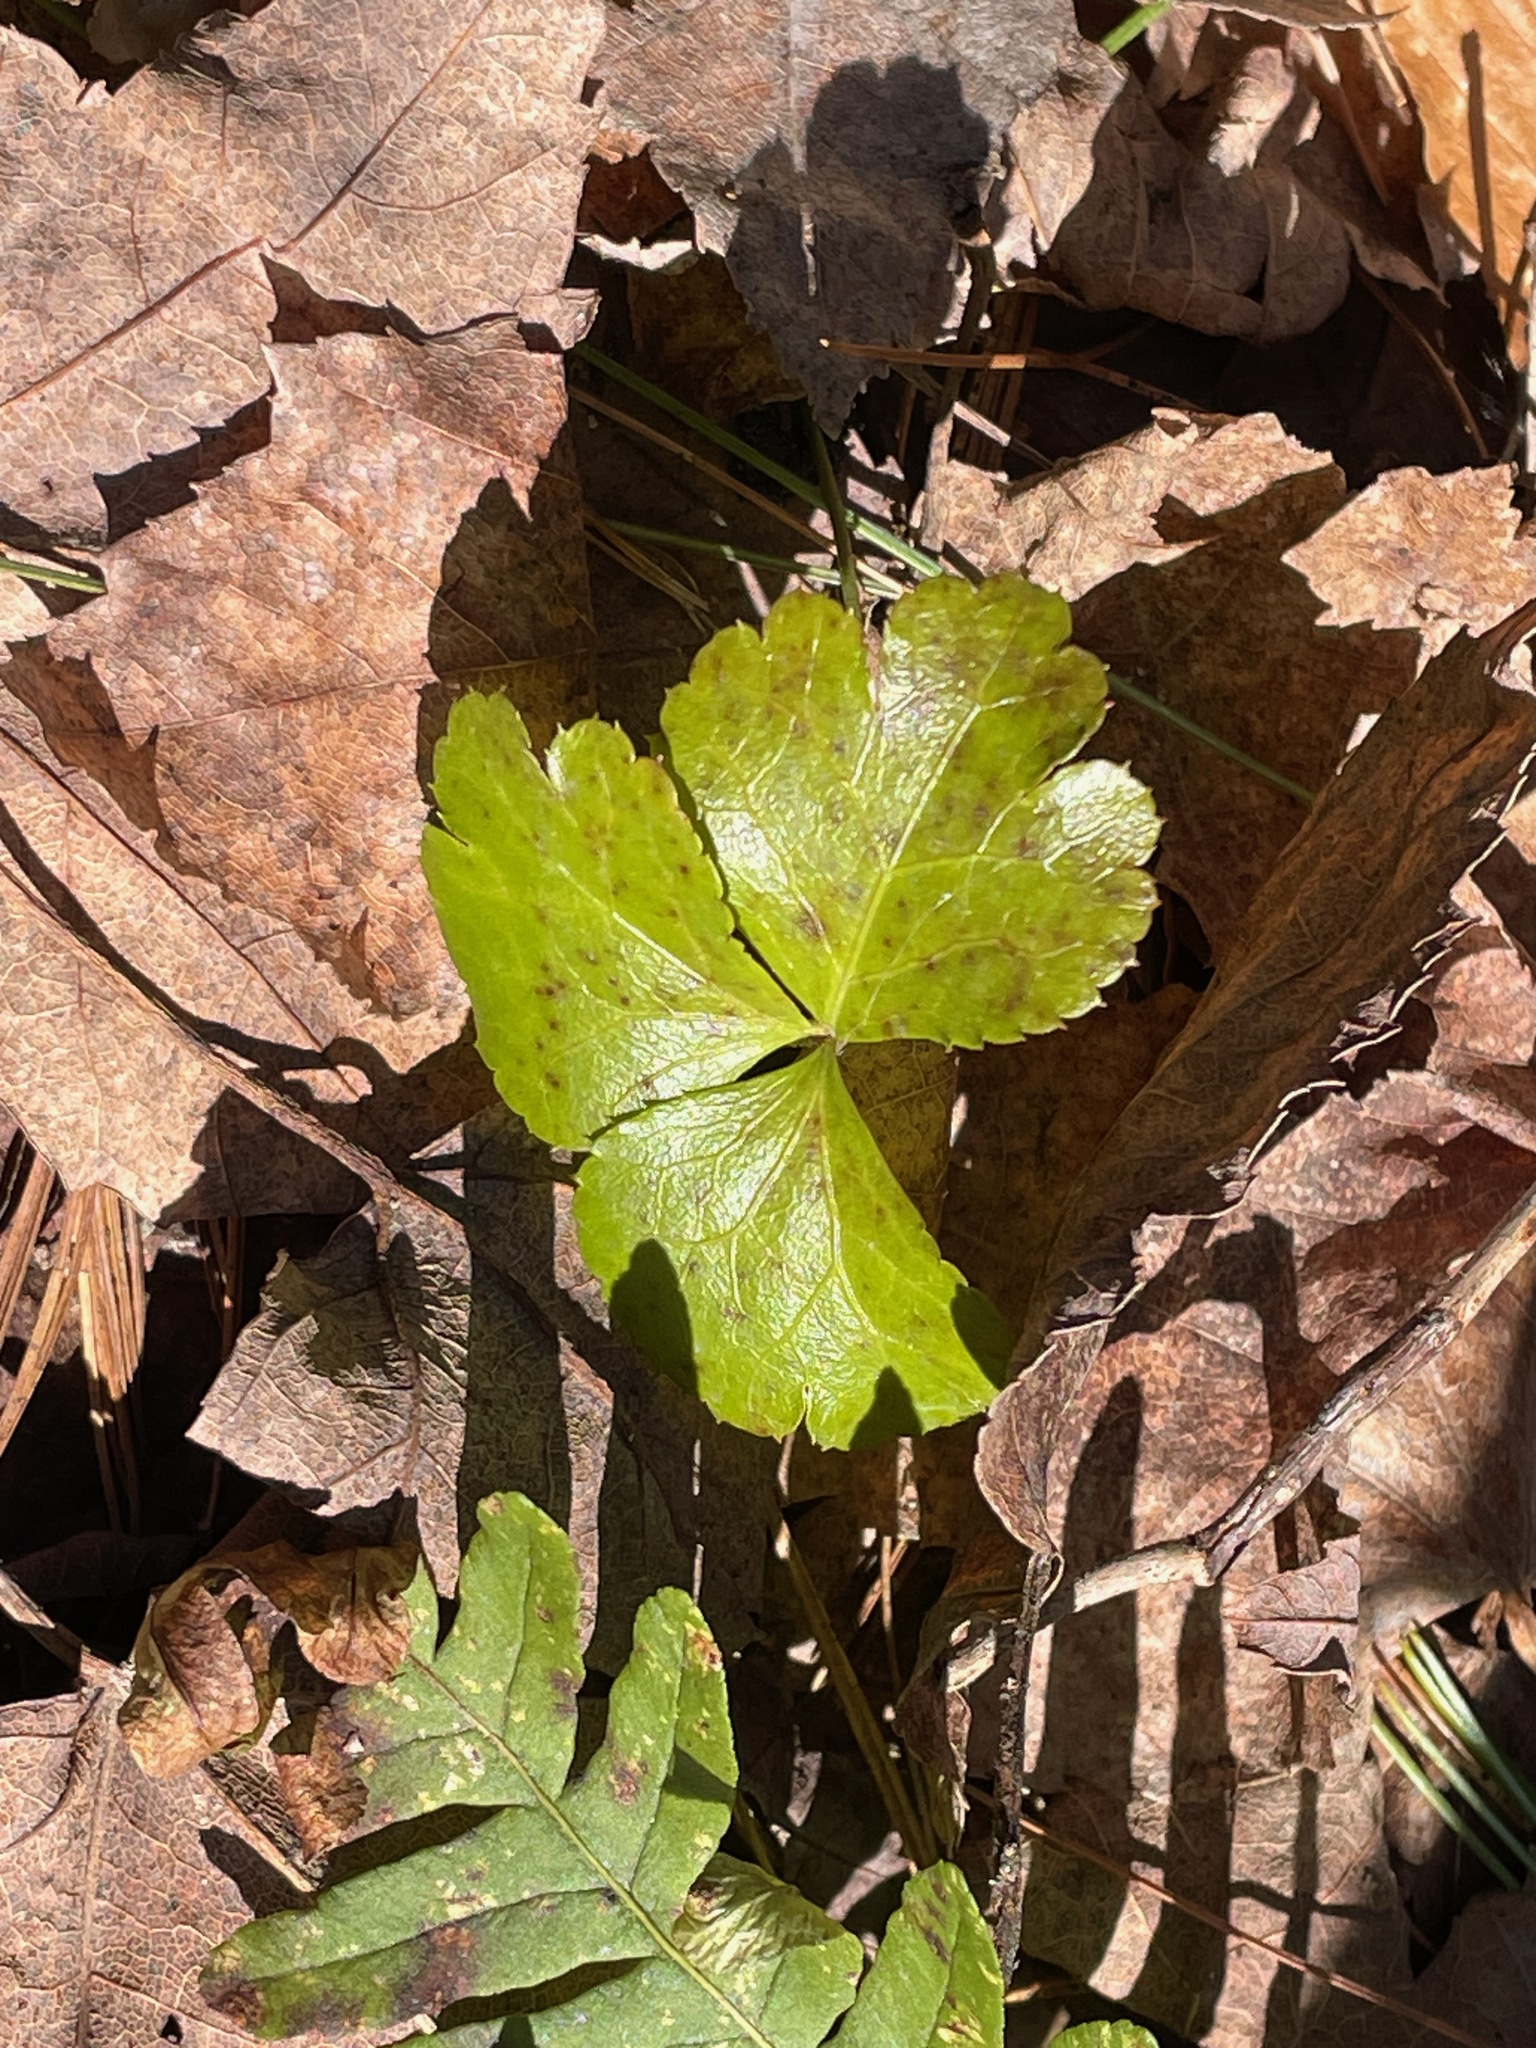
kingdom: Plantae
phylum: Tracheophyta
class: Magnoliopsida
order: Ranunculales
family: Ranunculaceae
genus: Coptis
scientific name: Coptis trifolia
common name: Canker-root
